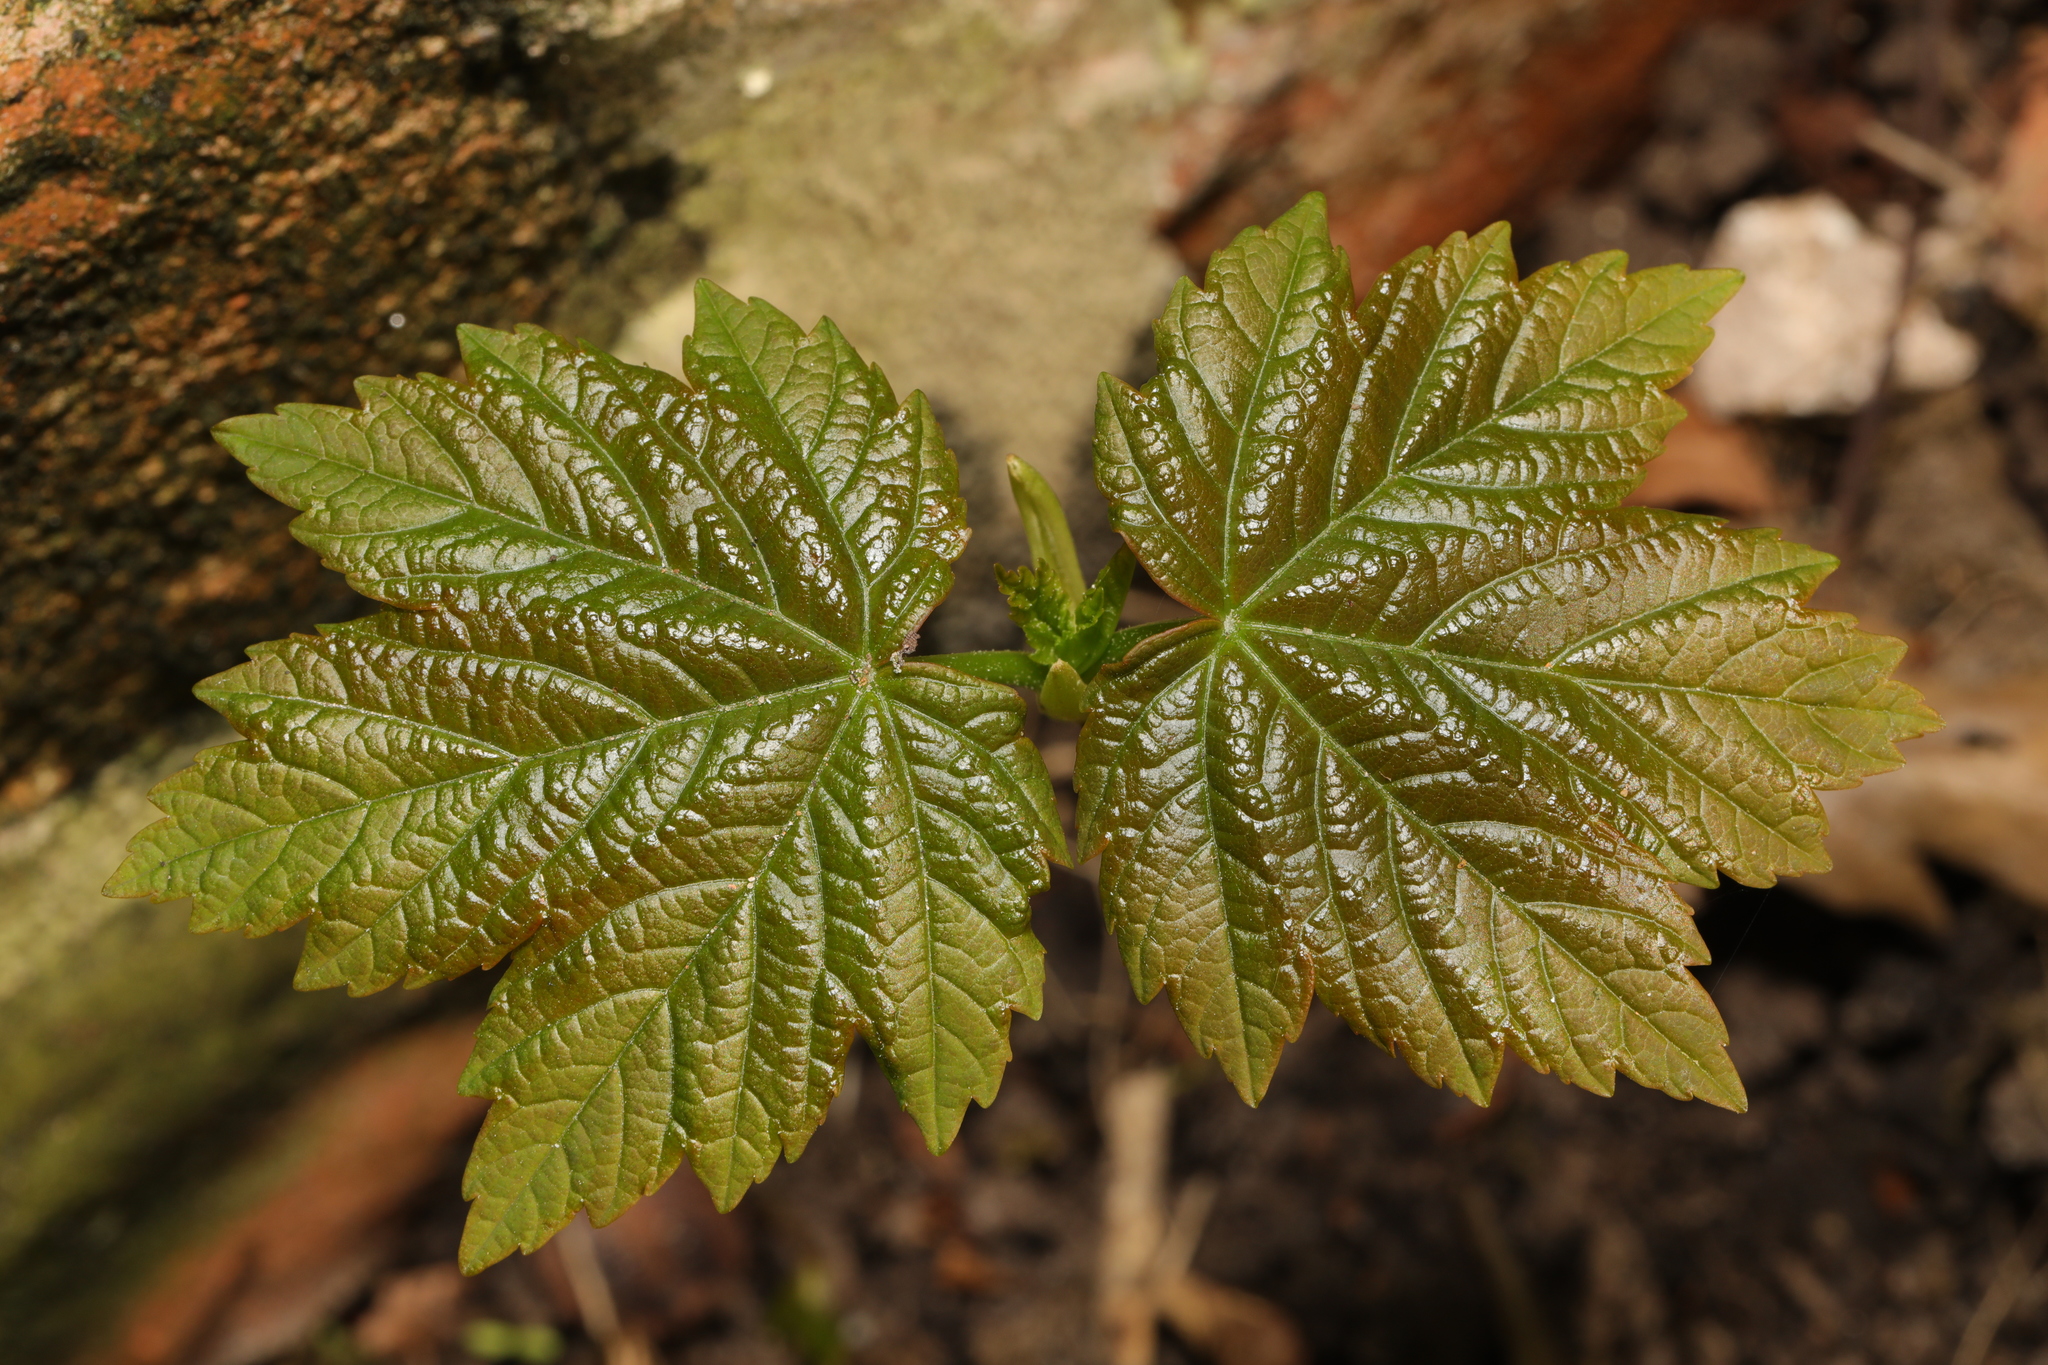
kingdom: Plantae
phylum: Tracheophyta
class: Magnoliopsida
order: Sapindales
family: Sapindaceae
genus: Acer
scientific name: Acer pseudoplatanus
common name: Sycamore
